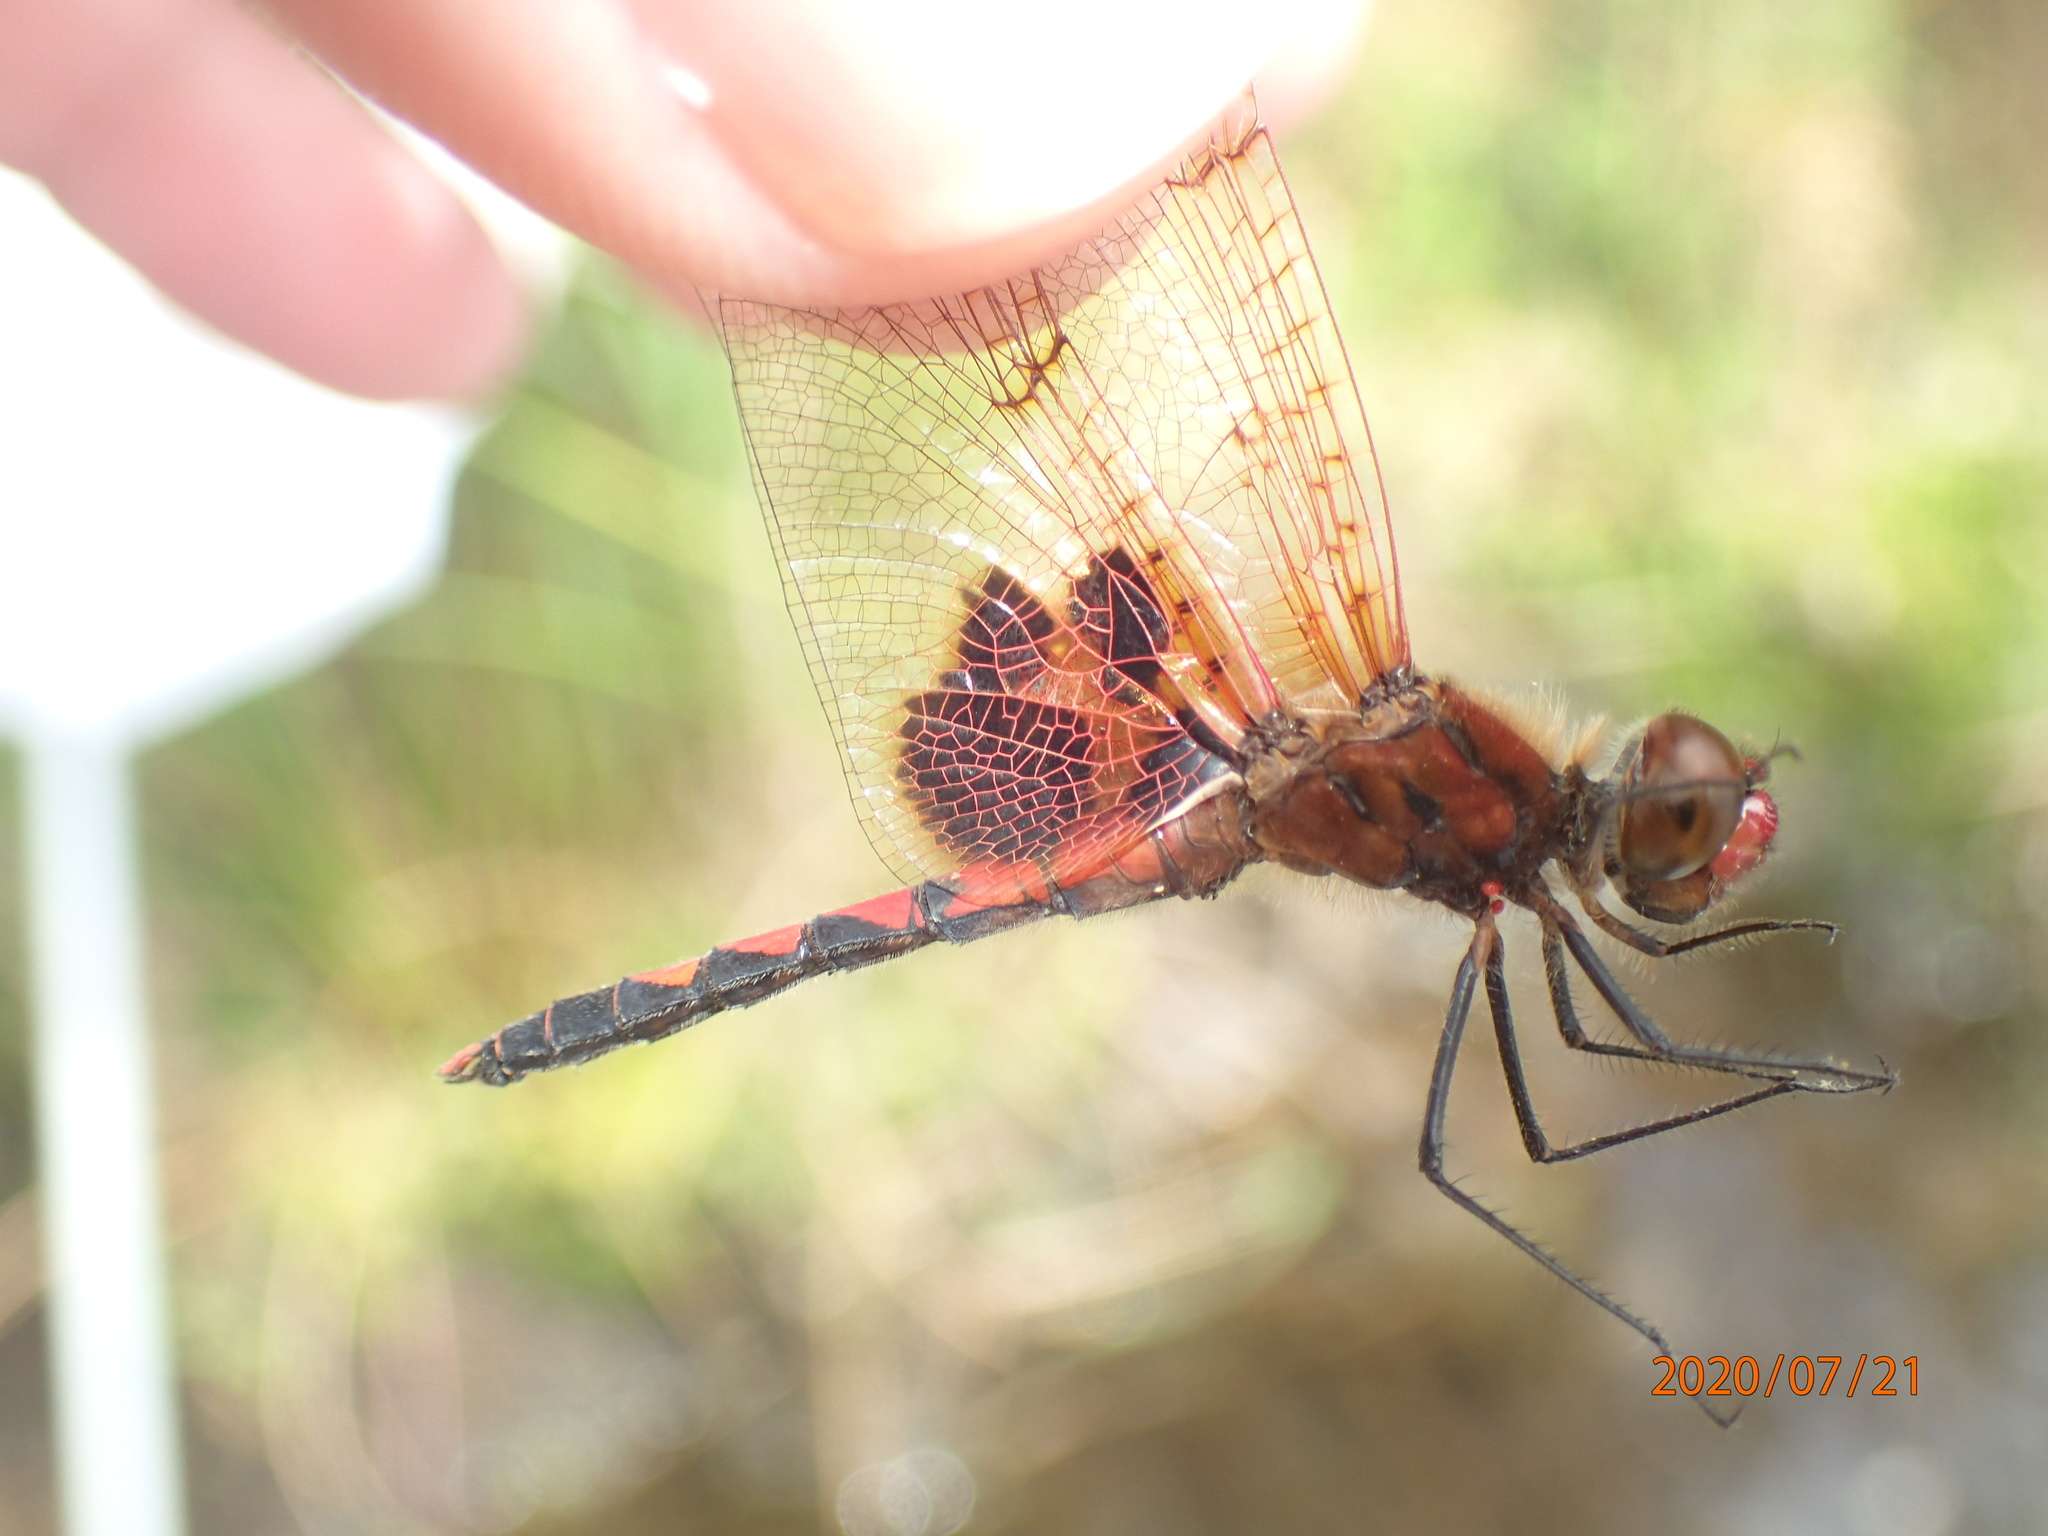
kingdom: Animalia
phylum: Arthropoda
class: Insecta
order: Odonata
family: Libellulidae
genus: Celithemis
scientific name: Celithemis elisa
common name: Calico pennant
